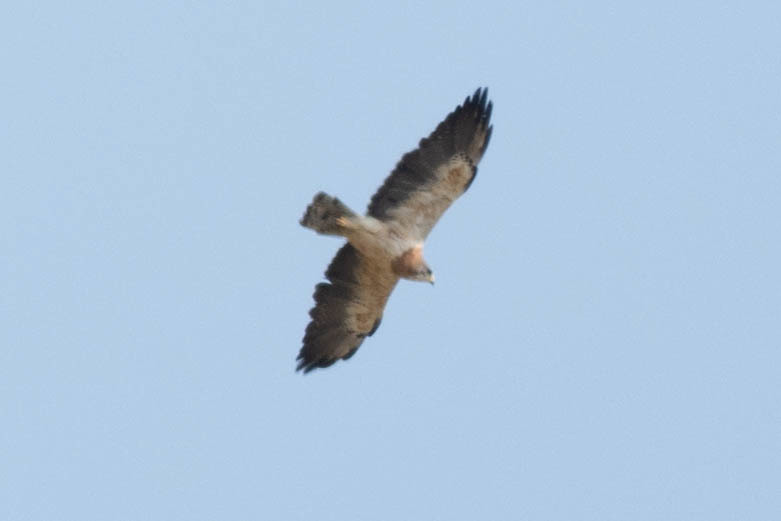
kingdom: Animalia
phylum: Chordata
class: Aves
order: Accipitriformes
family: Accipitridae
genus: Buteo
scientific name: Buteo swainsoni
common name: Swainson's hawk
